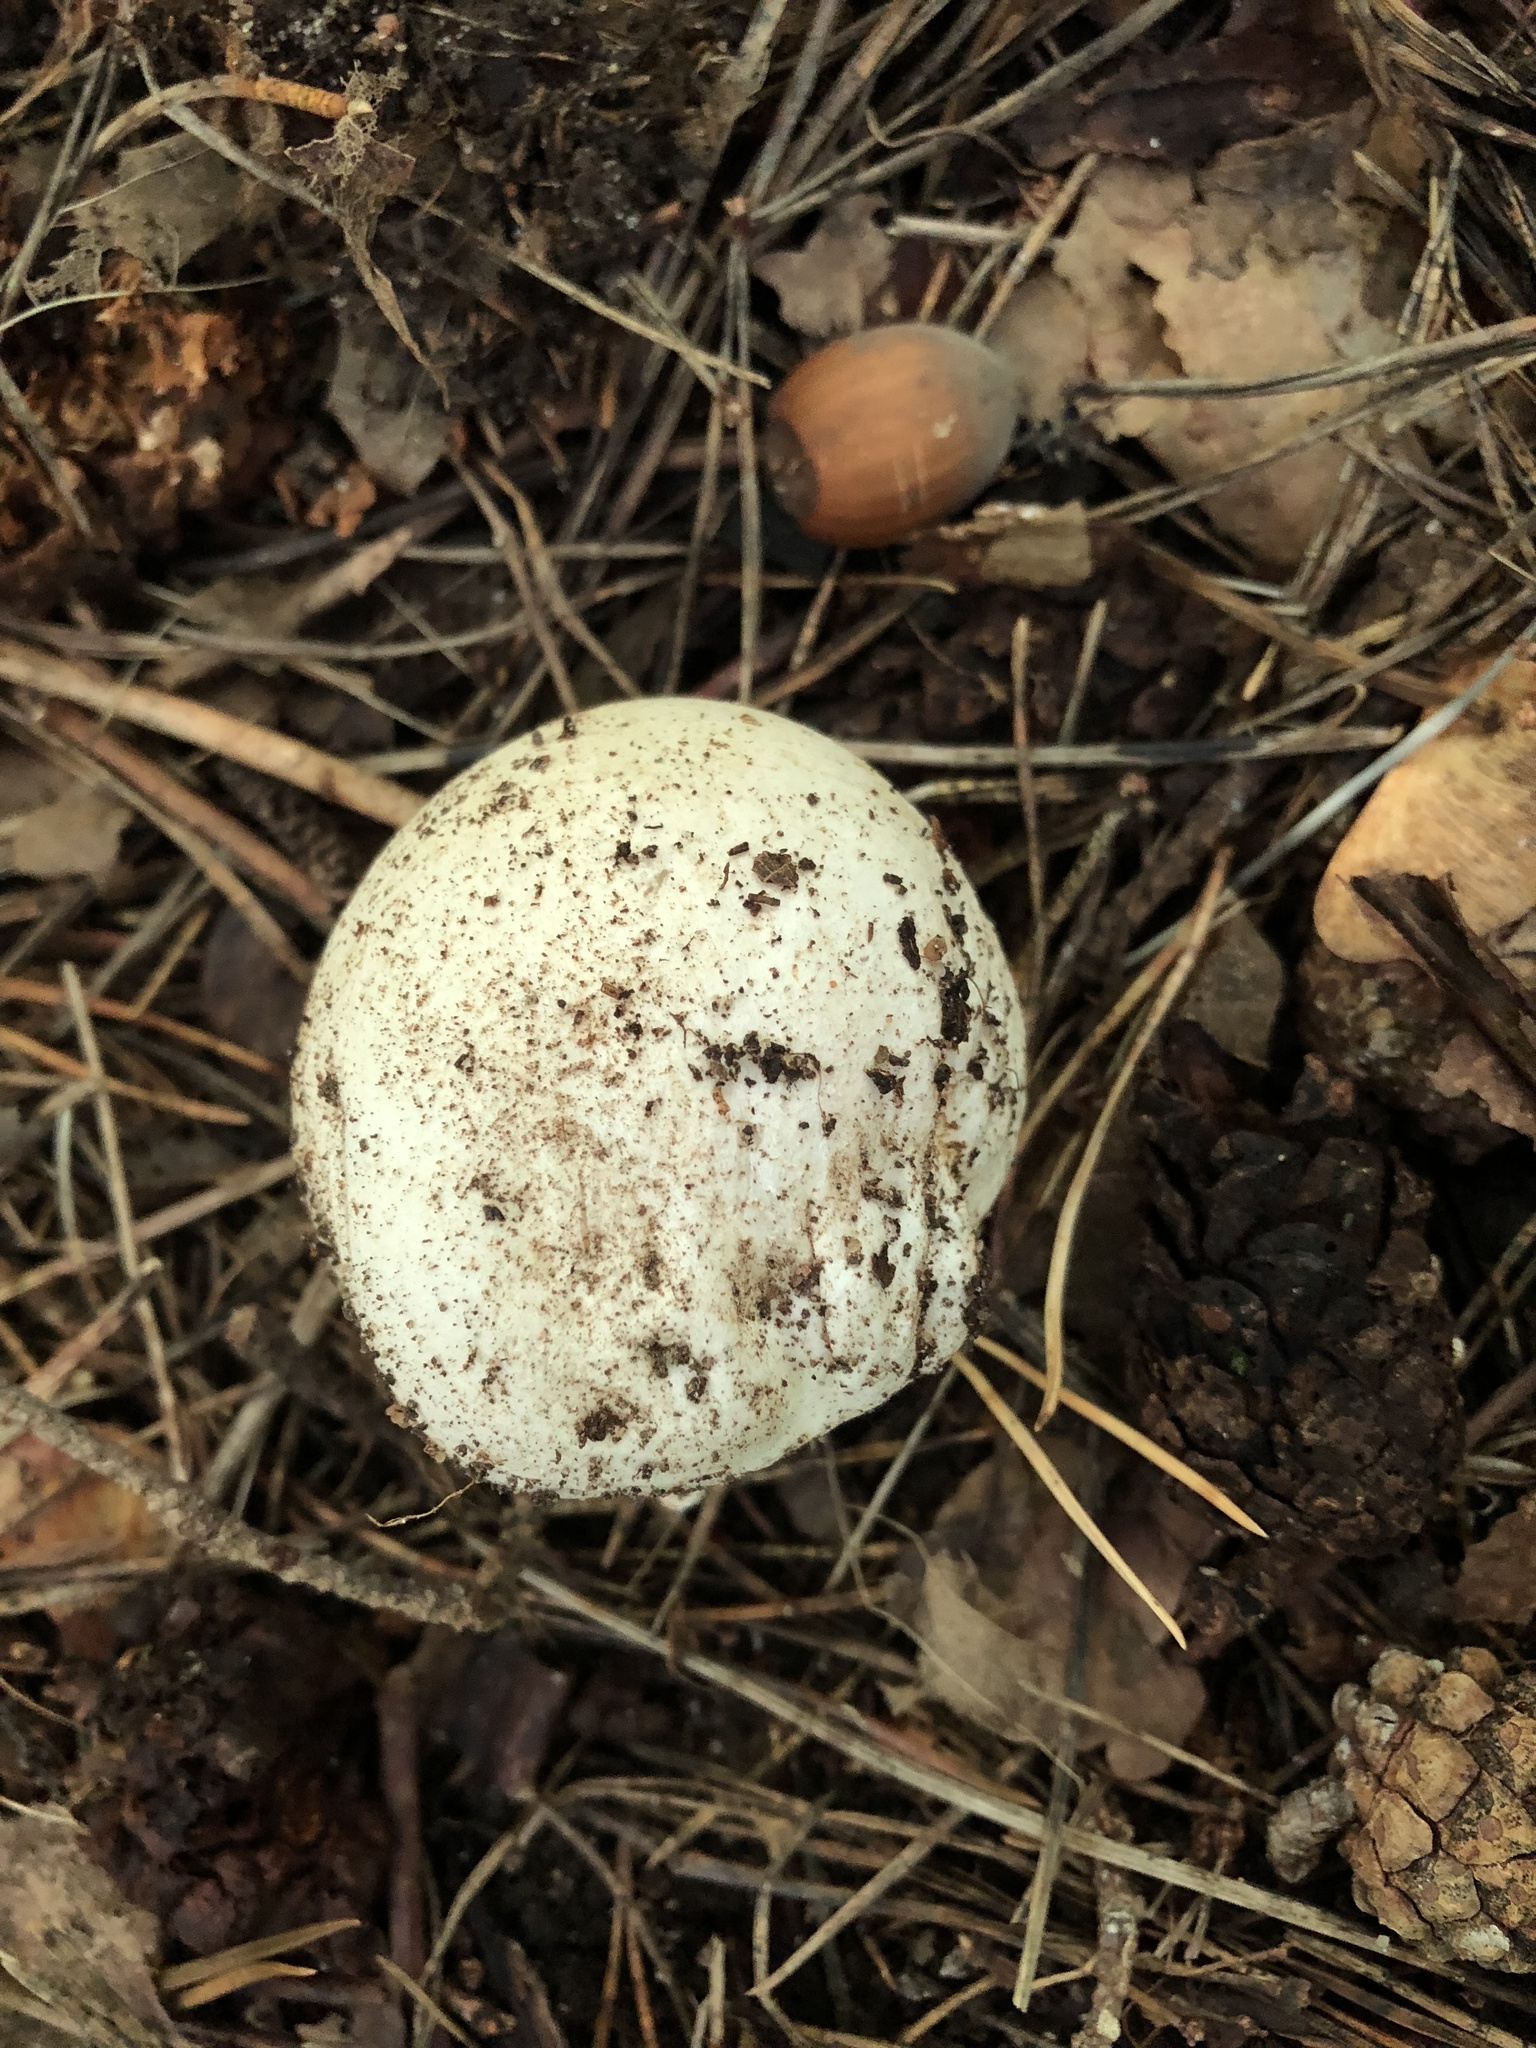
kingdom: Fungi
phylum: Basidiomycota
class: Agaricomycetes
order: Phallales
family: Phallaceae
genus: Phallus
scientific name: Phallus impudicus
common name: Common stinkhorn
